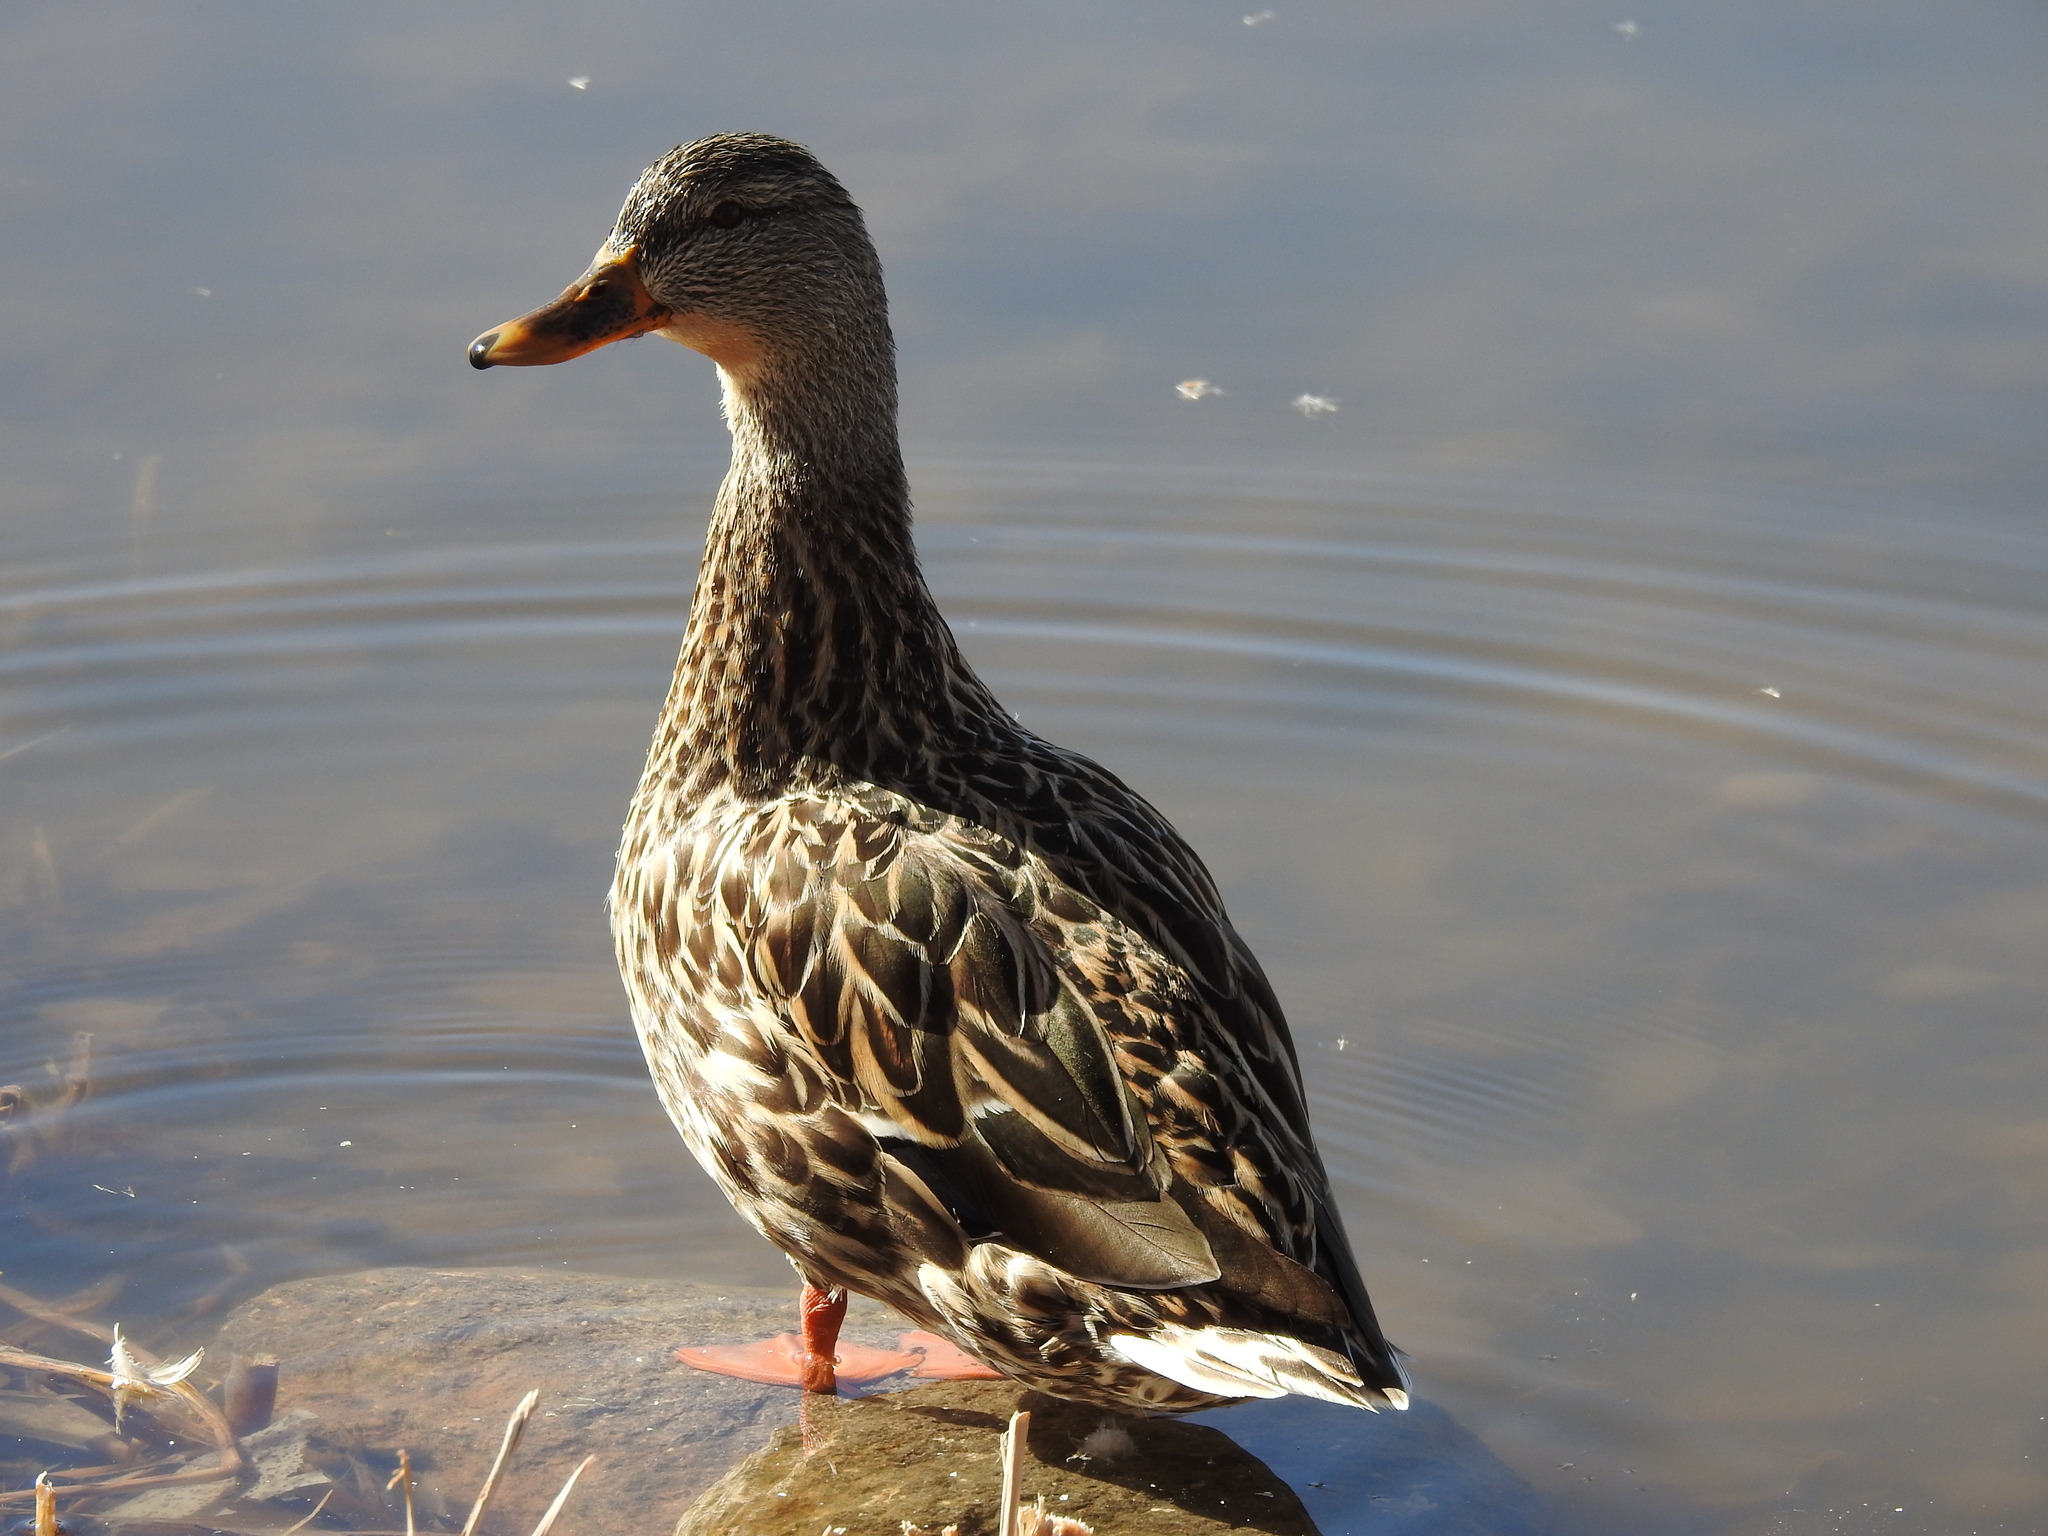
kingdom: Animalia
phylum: Chordata
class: Aves
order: Anseriformes
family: Anatidae
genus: Anas
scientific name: Anas platyrhynchos
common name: Mallard
